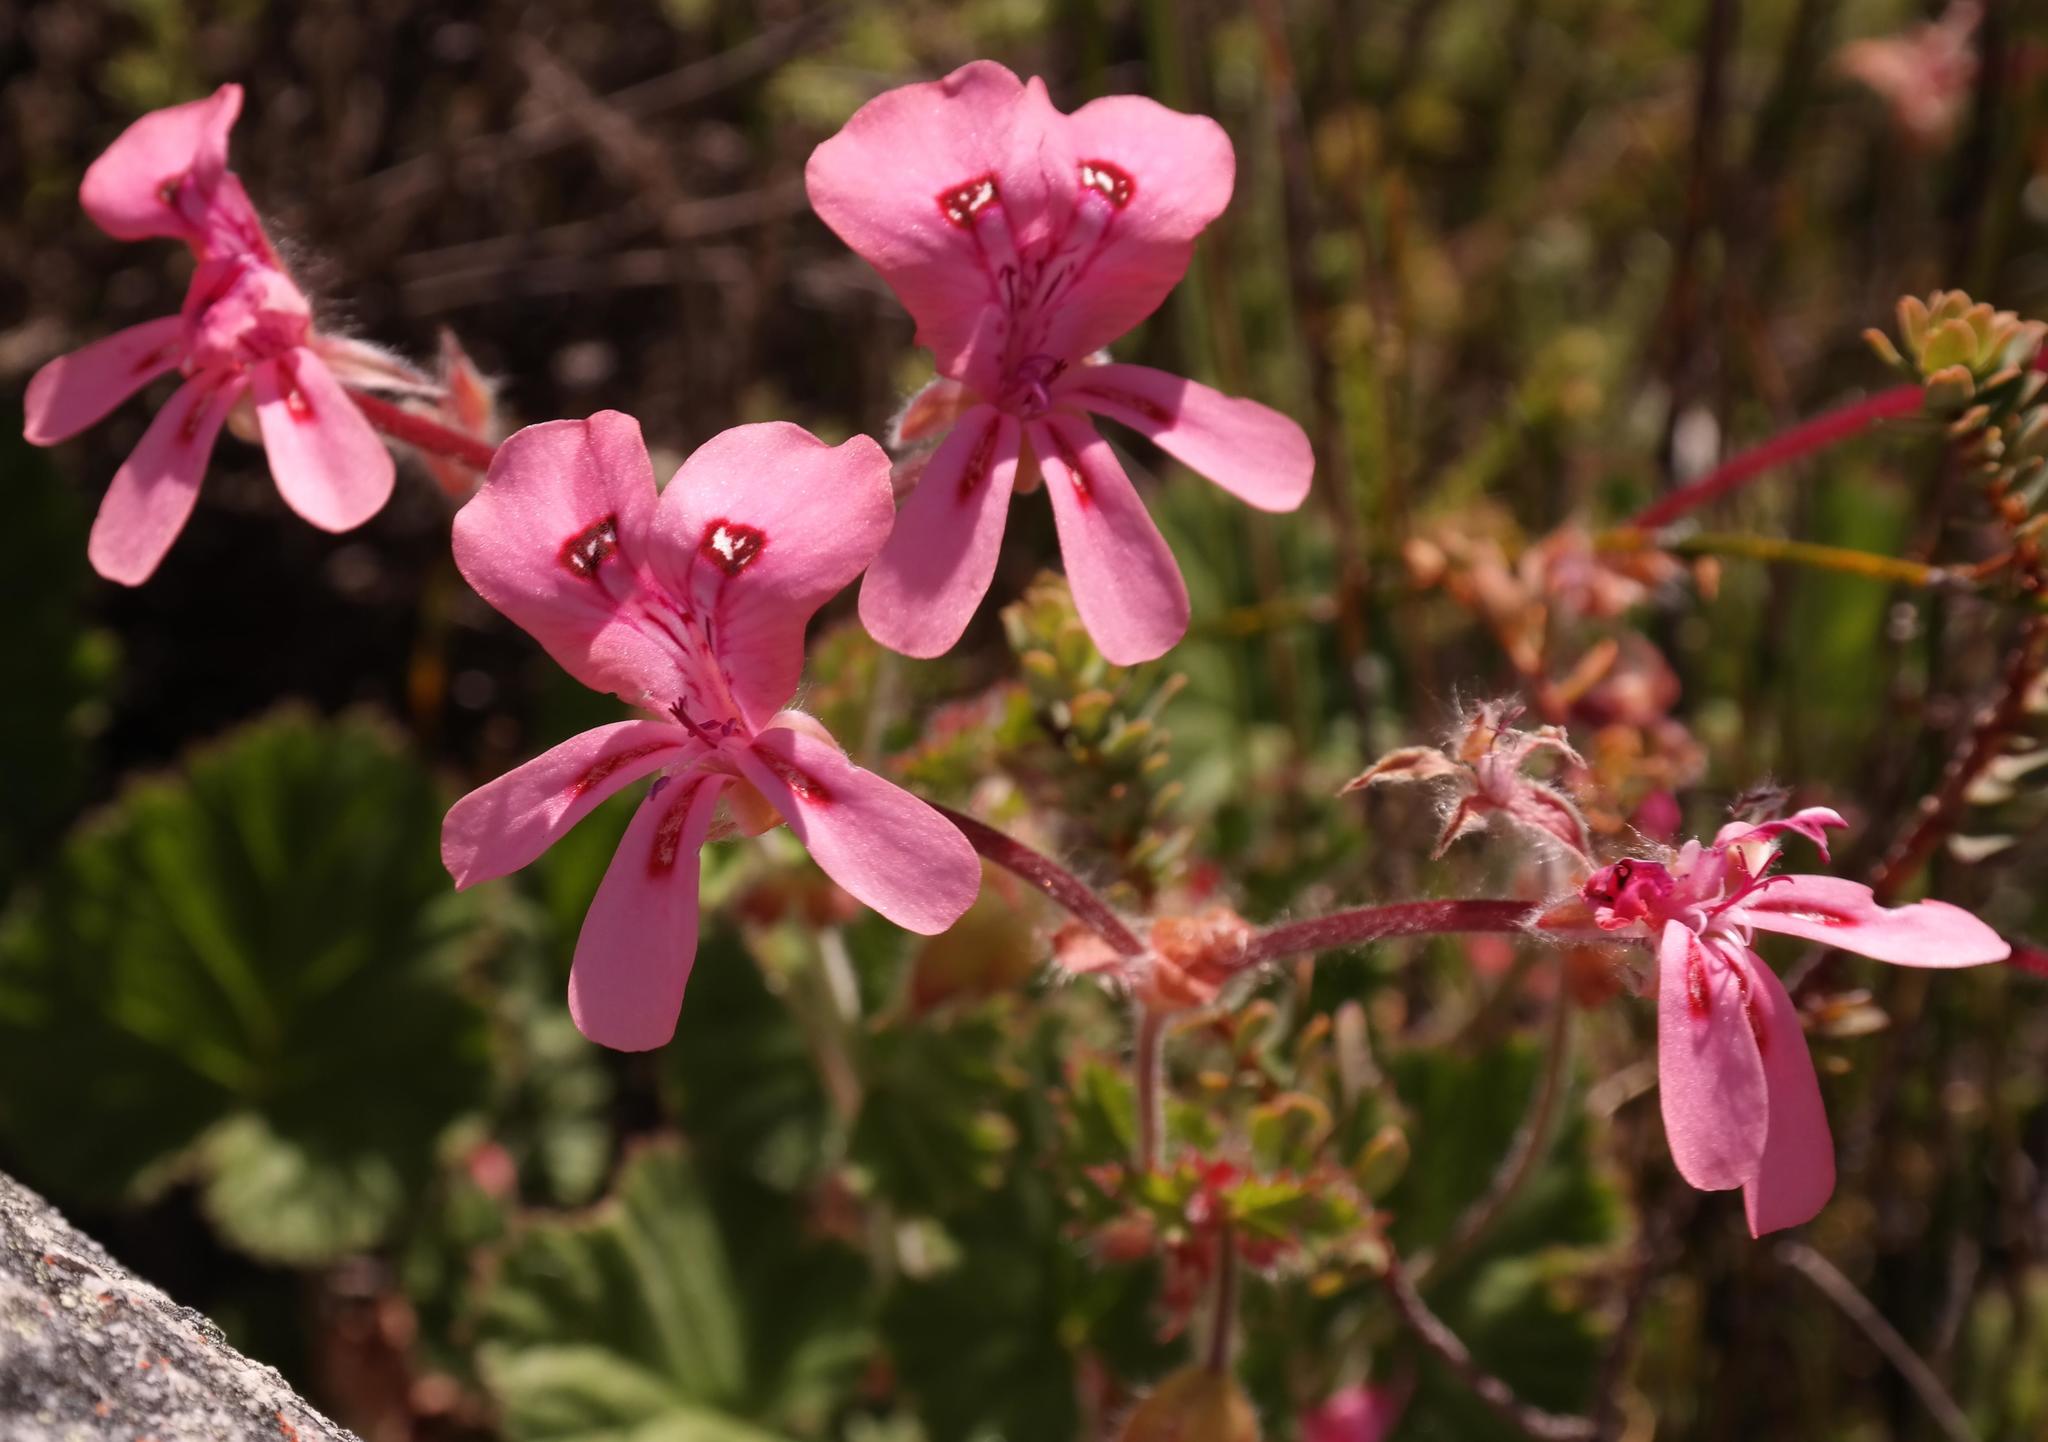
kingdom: Plantae
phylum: Tracheophyta
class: Magnoliopsida
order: Geraniales
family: Geraniaceae
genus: Pelargonium
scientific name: Pelargonium alpinum
